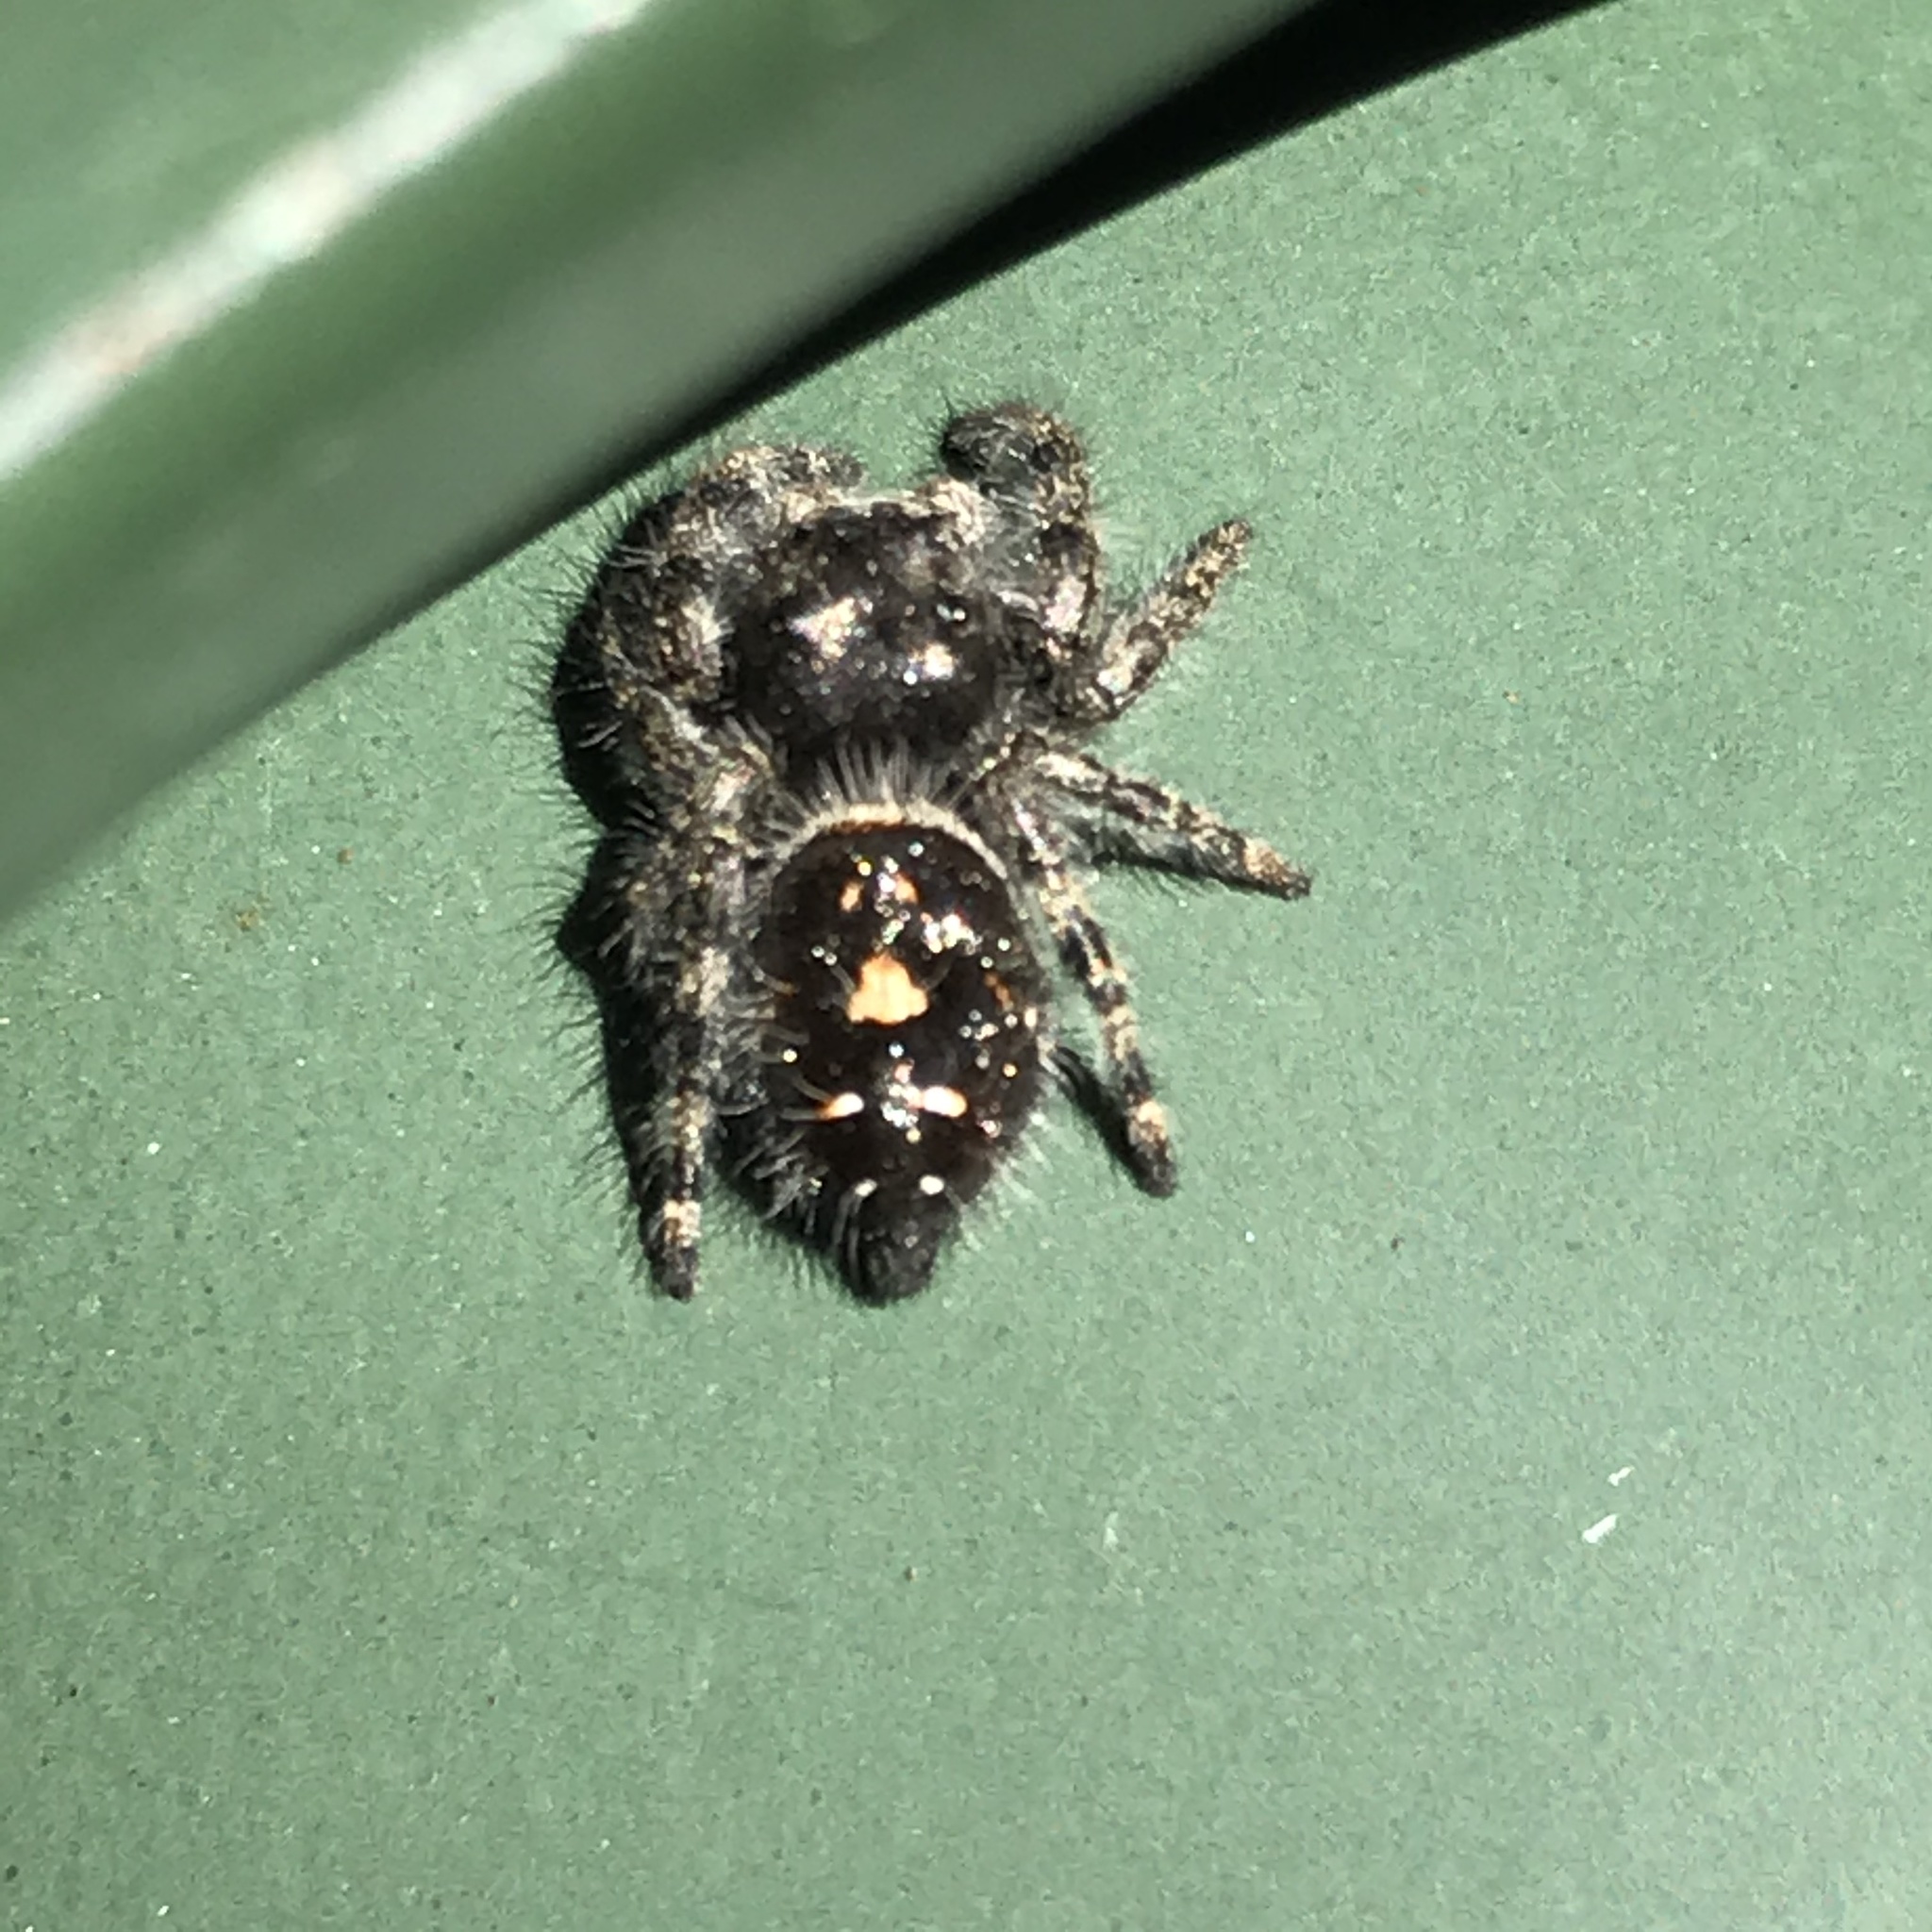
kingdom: Animalia
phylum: Arthropoda
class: Arachnida
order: Araneae
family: Salticidae
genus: Phidippus
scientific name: Phidippus audax
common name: Bold jumper
